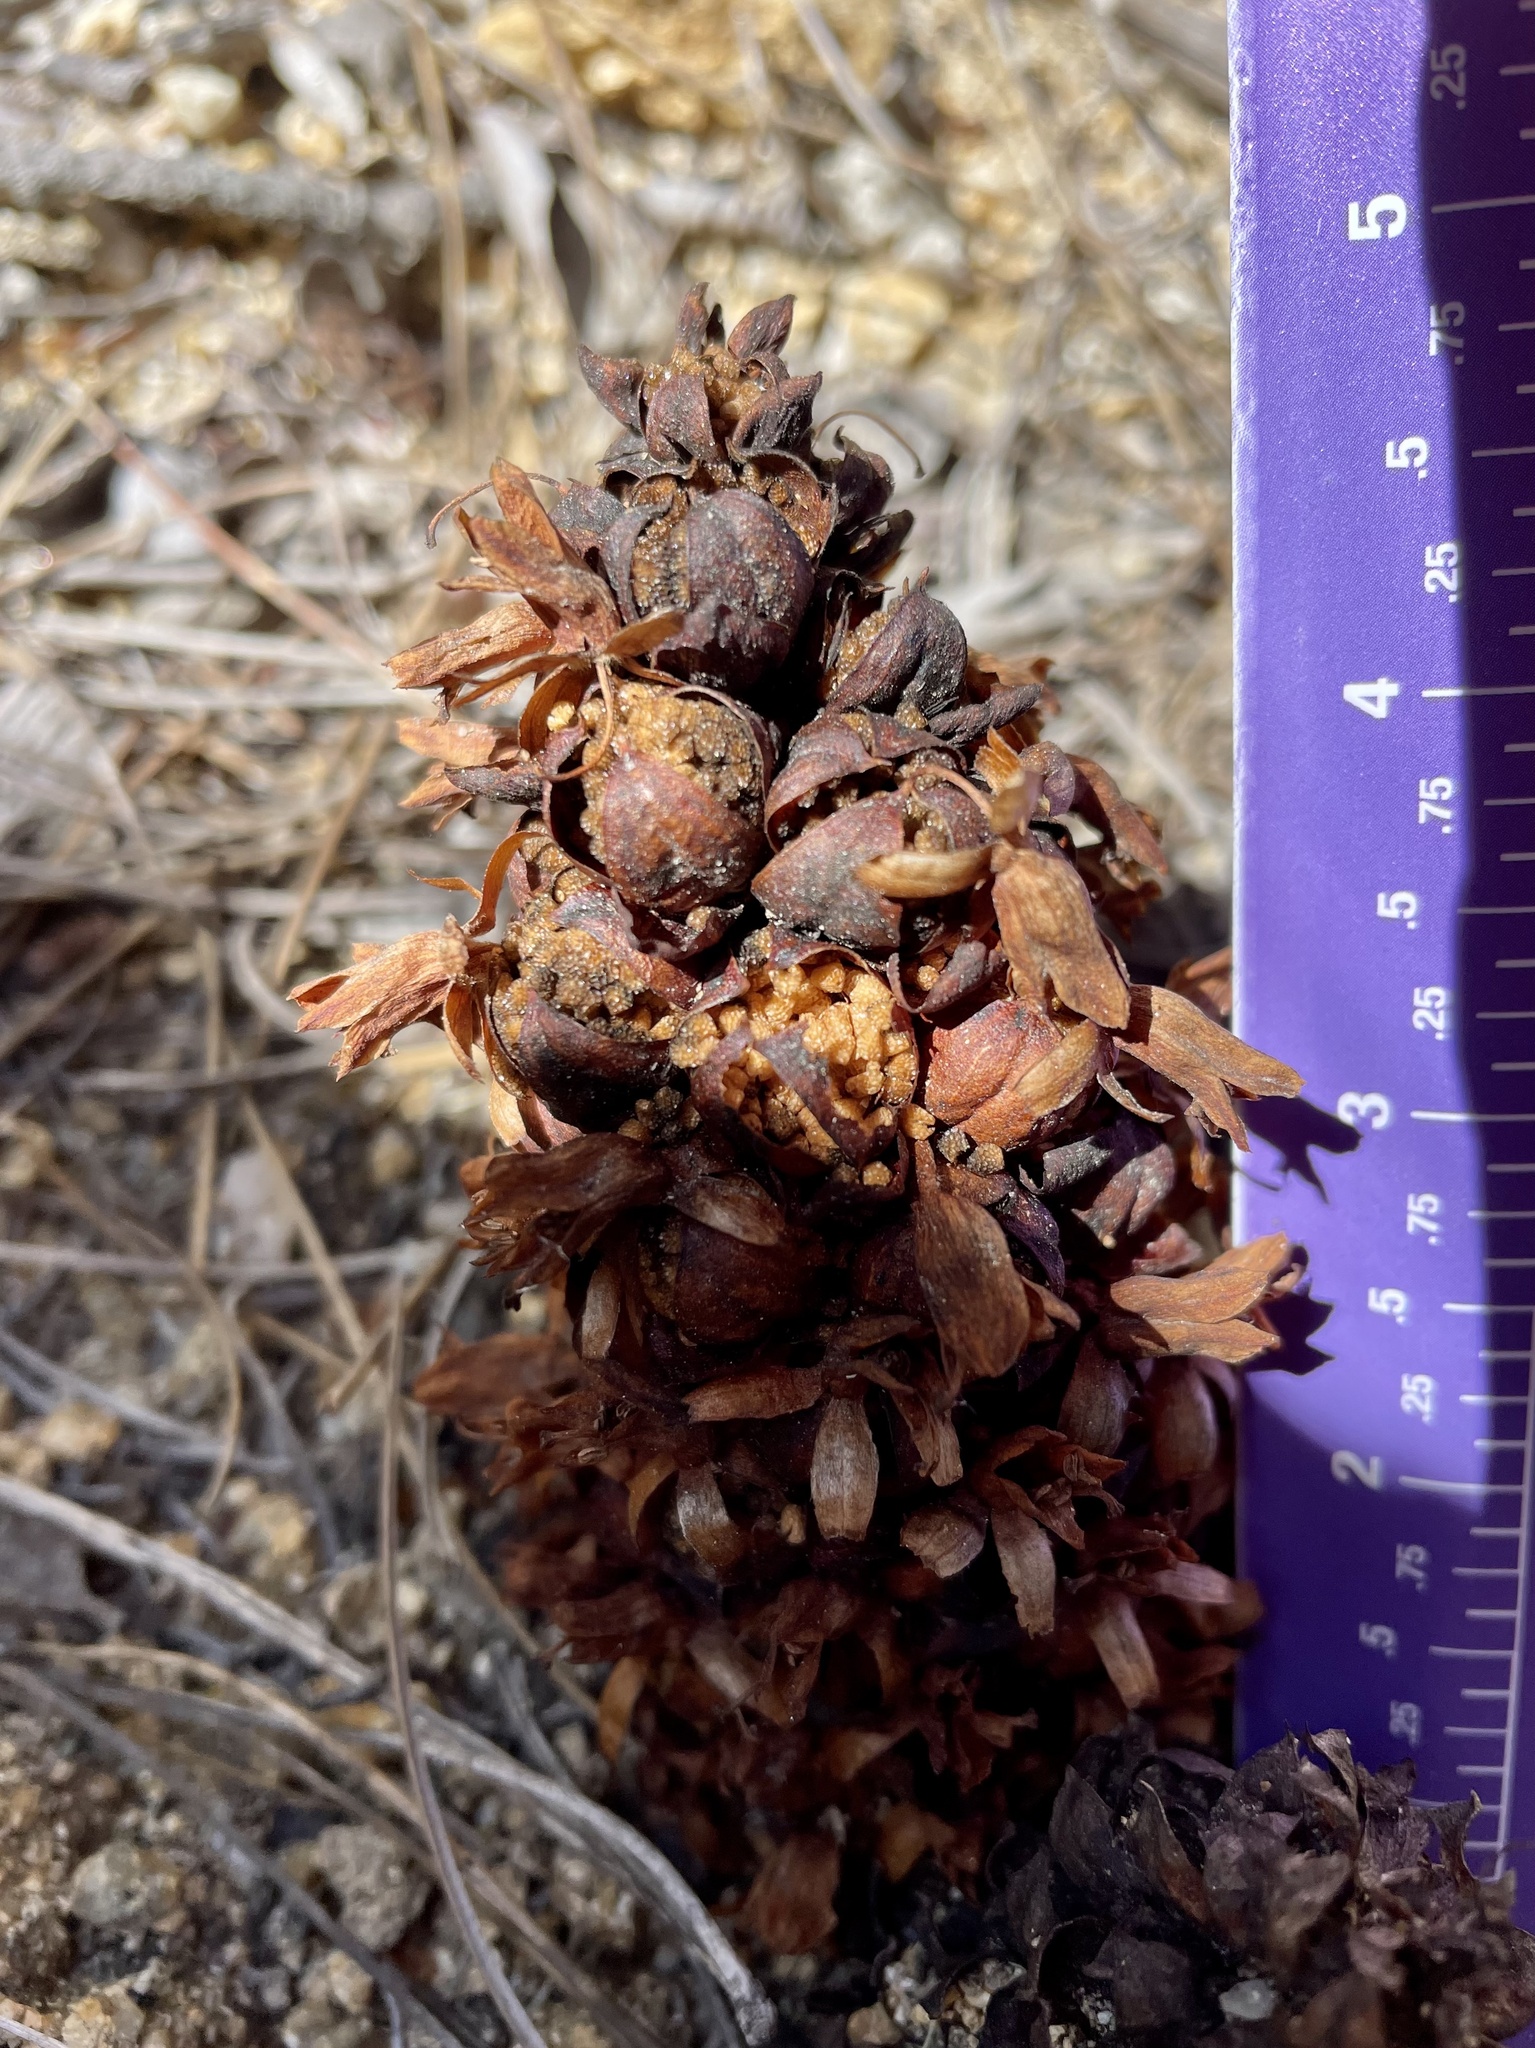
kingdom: Plantae
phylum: Tracheophyta
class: Magnoliopsida
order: Lamiales
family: Orobanchaceae
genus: Kopsiopsis
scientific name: Kopsiopsis strobilacea
